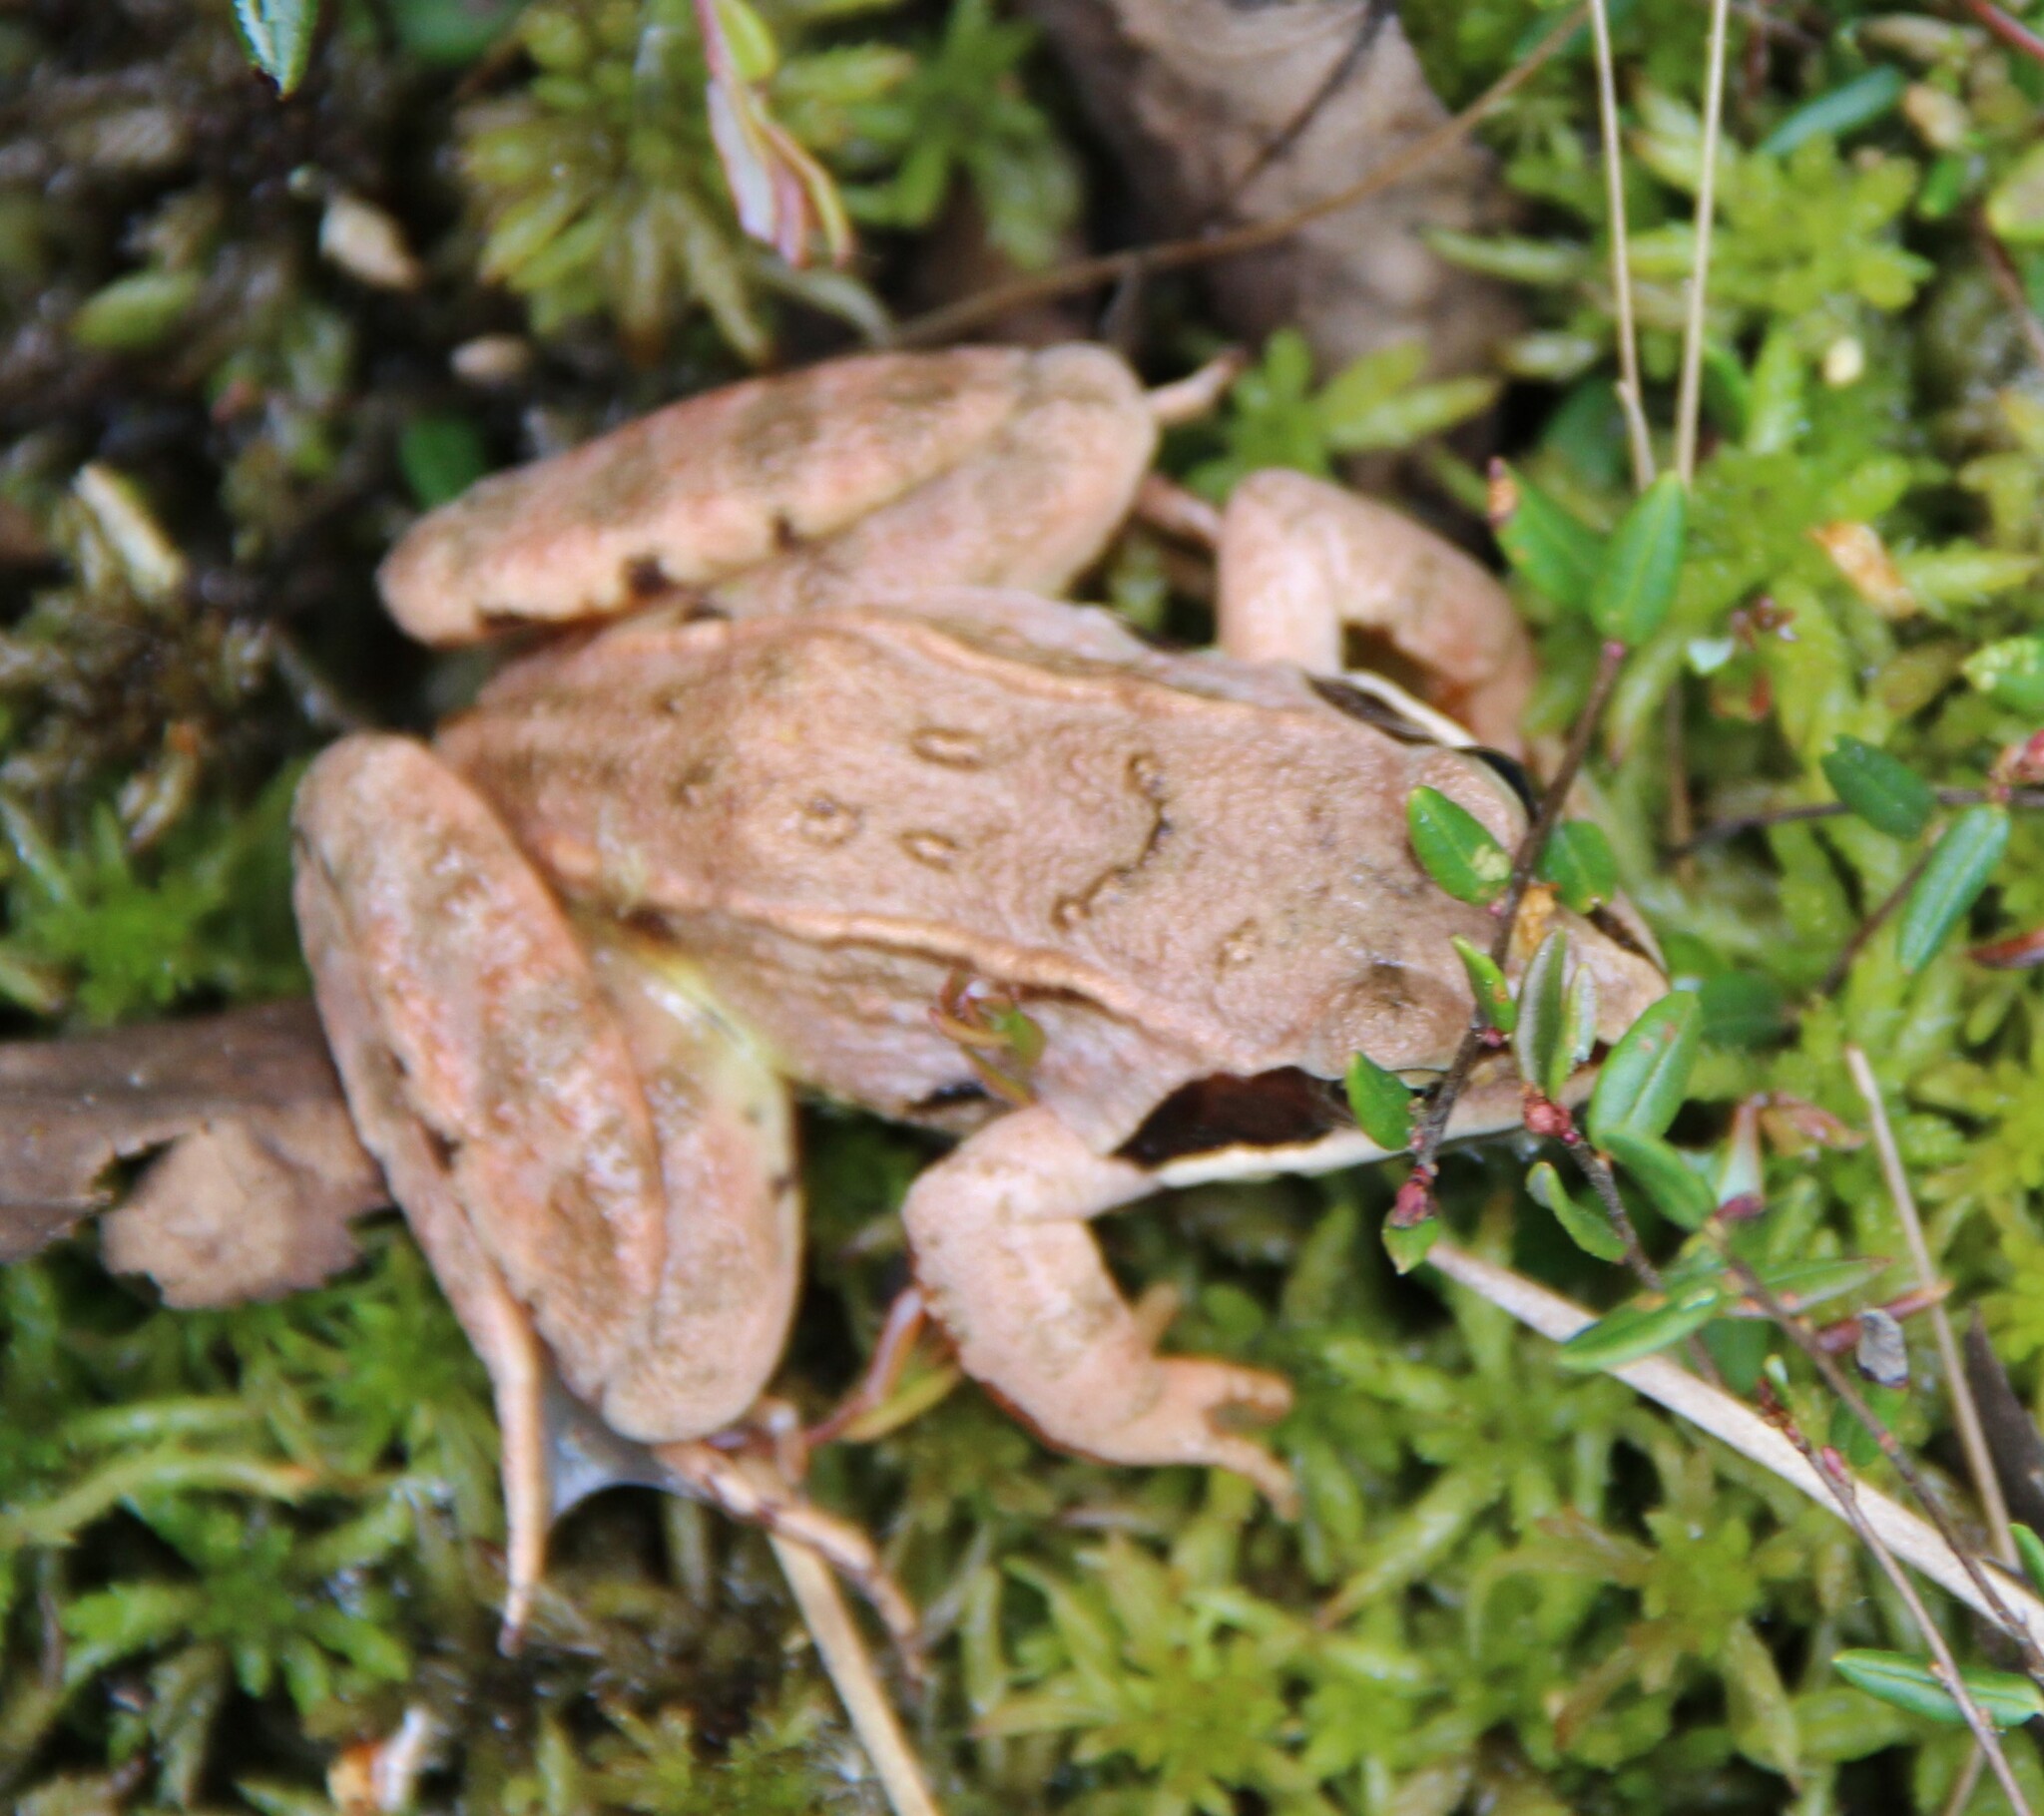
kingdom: Animalia
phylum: Chordata
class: Amphibia
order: Anura
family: Ranidae
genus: Rana
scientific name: Rana arvalis
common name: Moor frog
